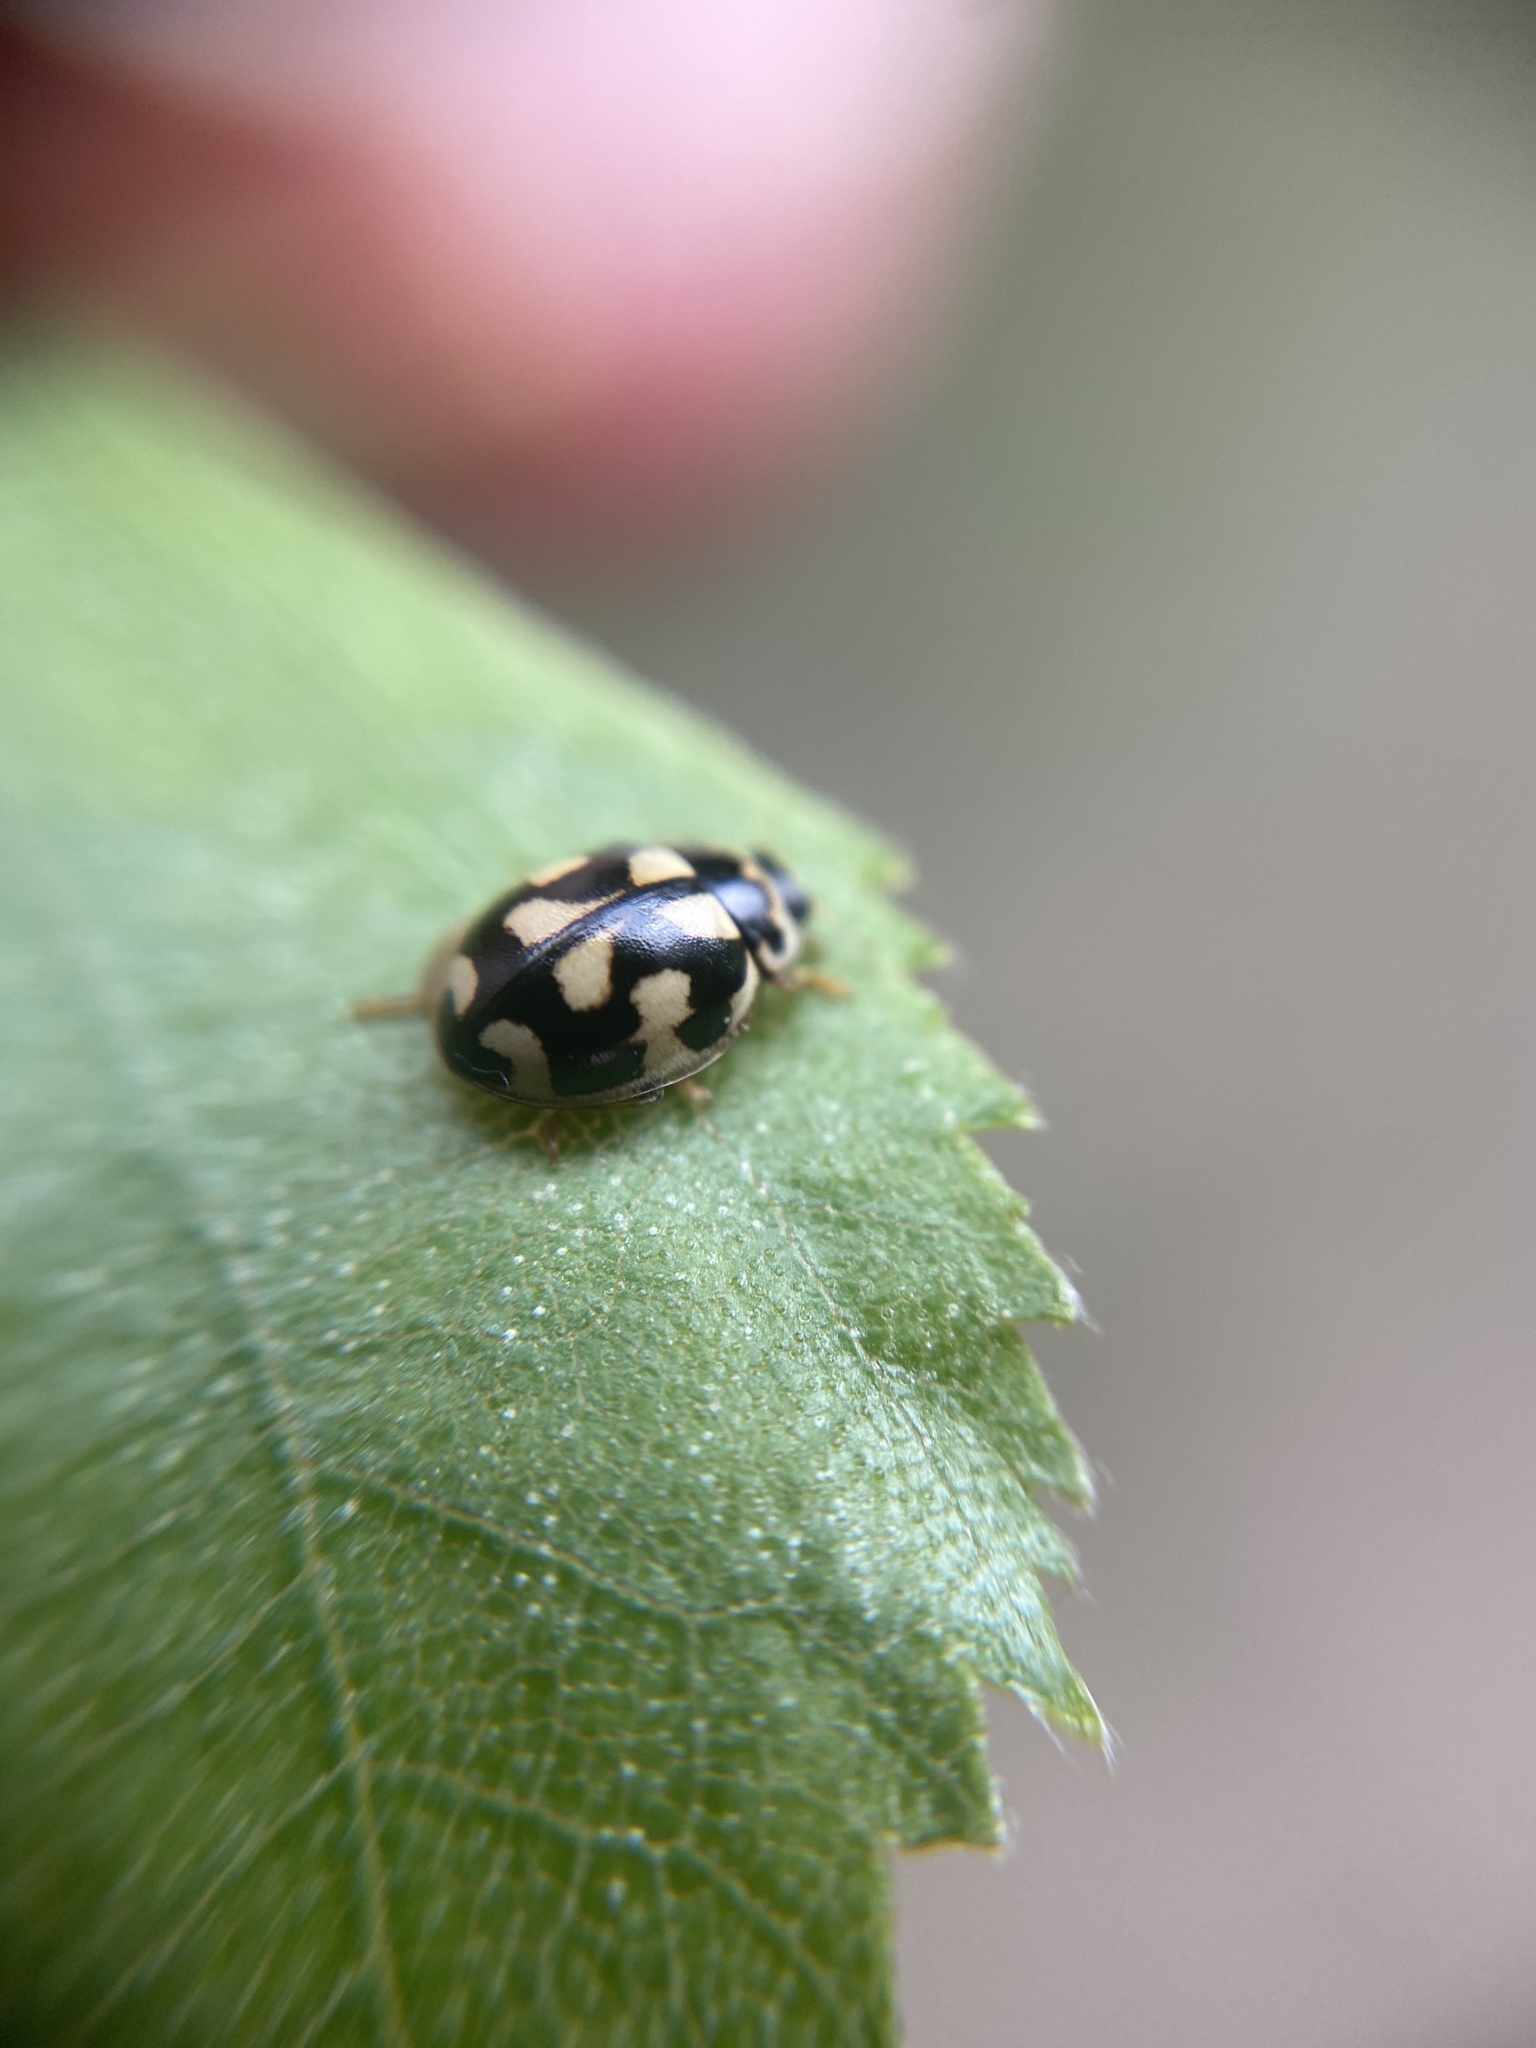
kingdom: Animalia
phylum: Arthropoda
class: Insecta
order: Coleoptera
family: Coccinellidae
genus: Propylaea
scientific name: Propylaea quatuordecimpunctata
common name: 14-spotted ladybird beetle
